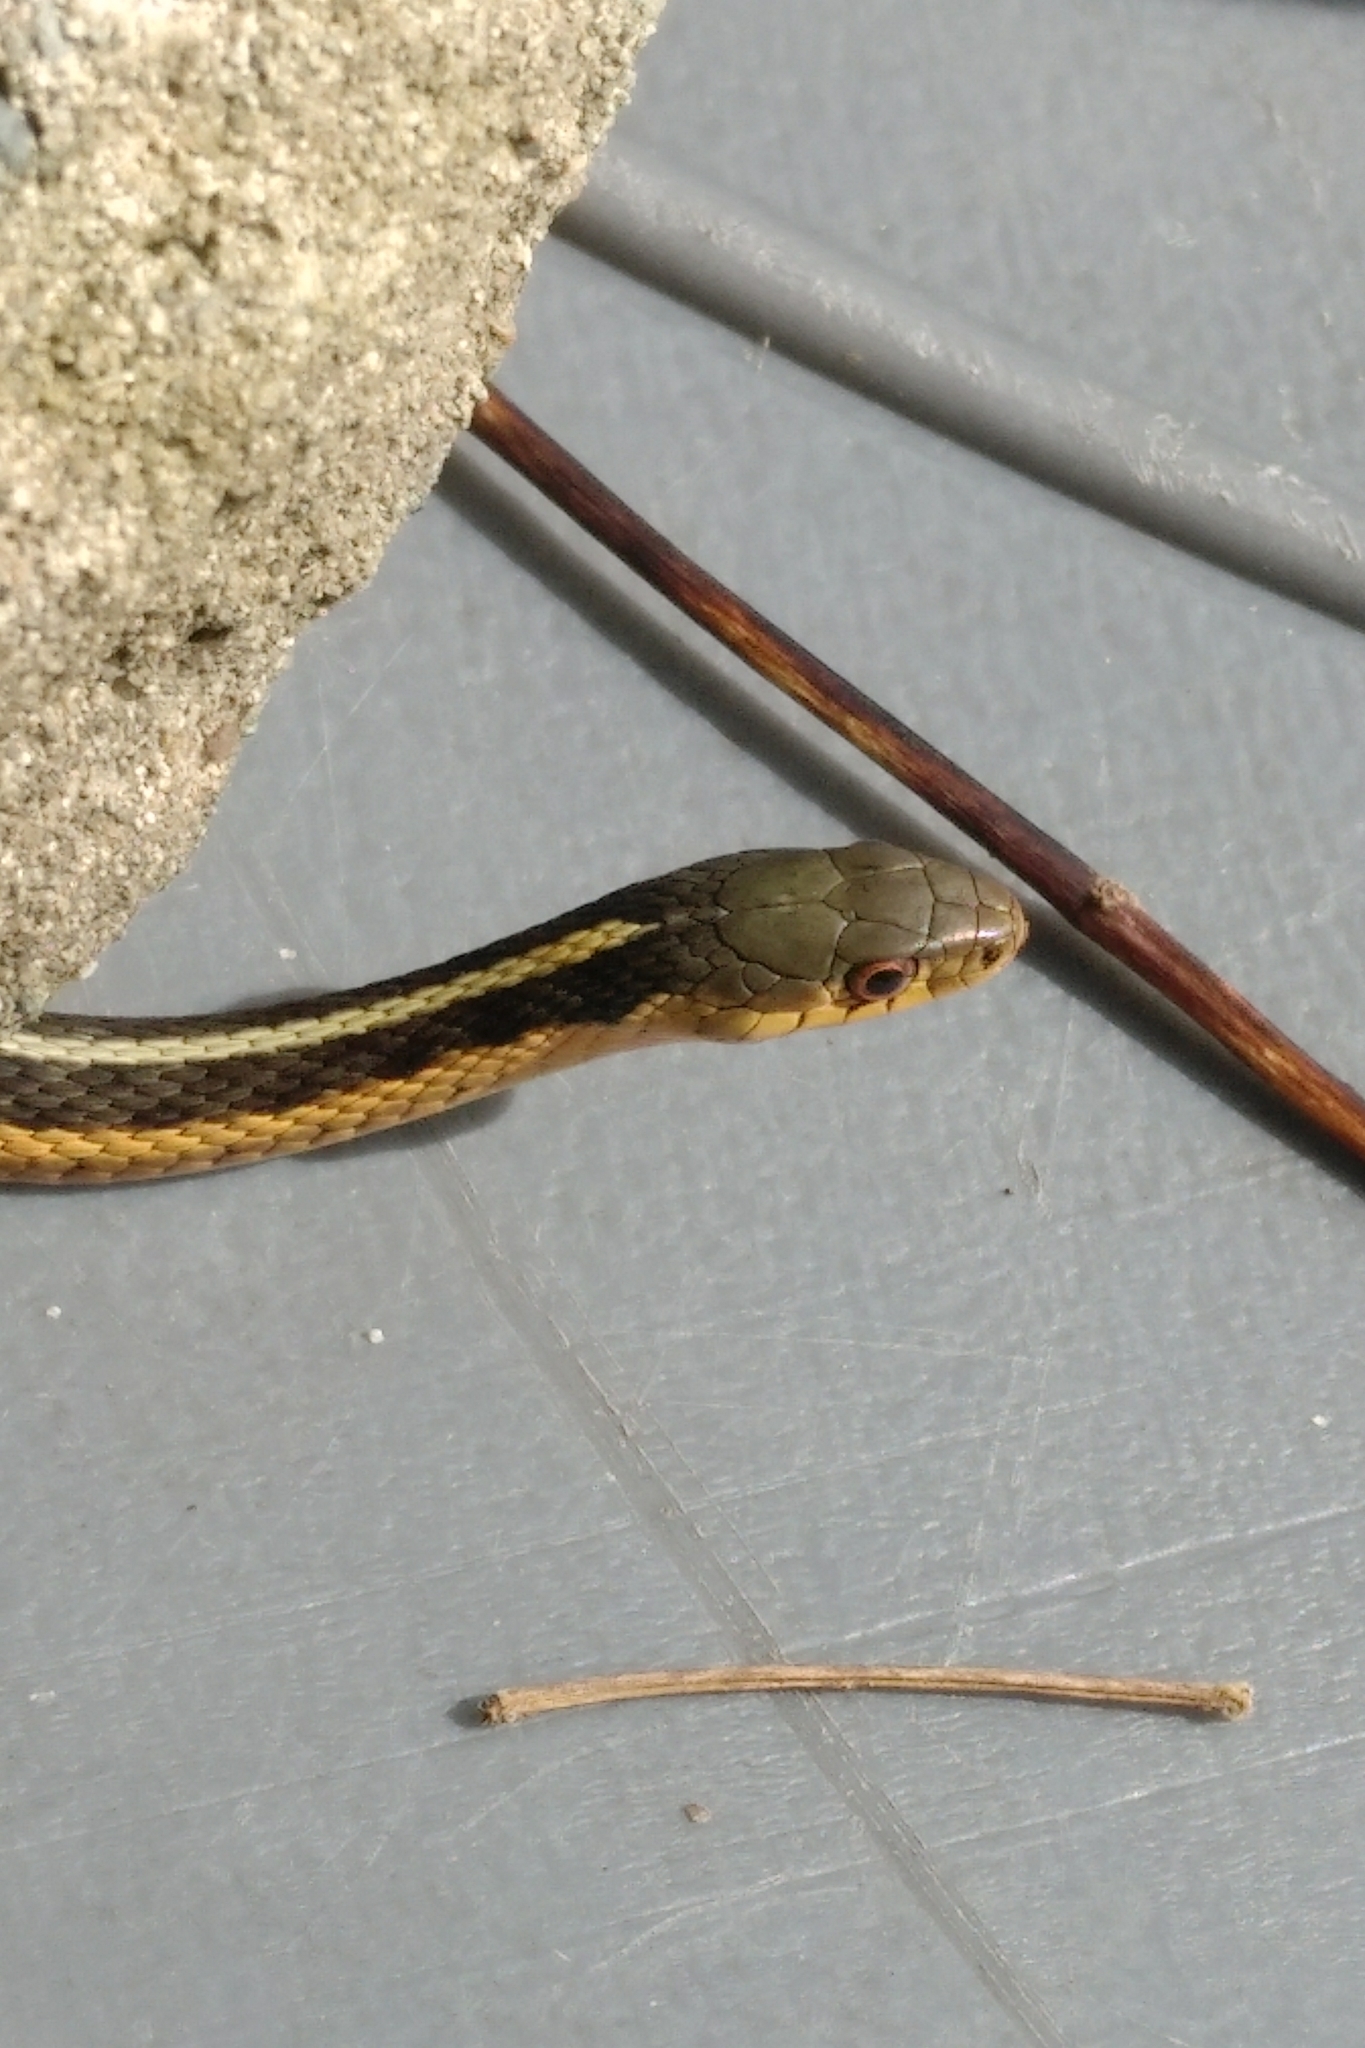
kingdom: Animalia
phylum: Chordata
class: Squamata
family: Colubridae
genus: Thamnophis
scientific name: Thamnophis sirtalis
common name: Common garter snake
